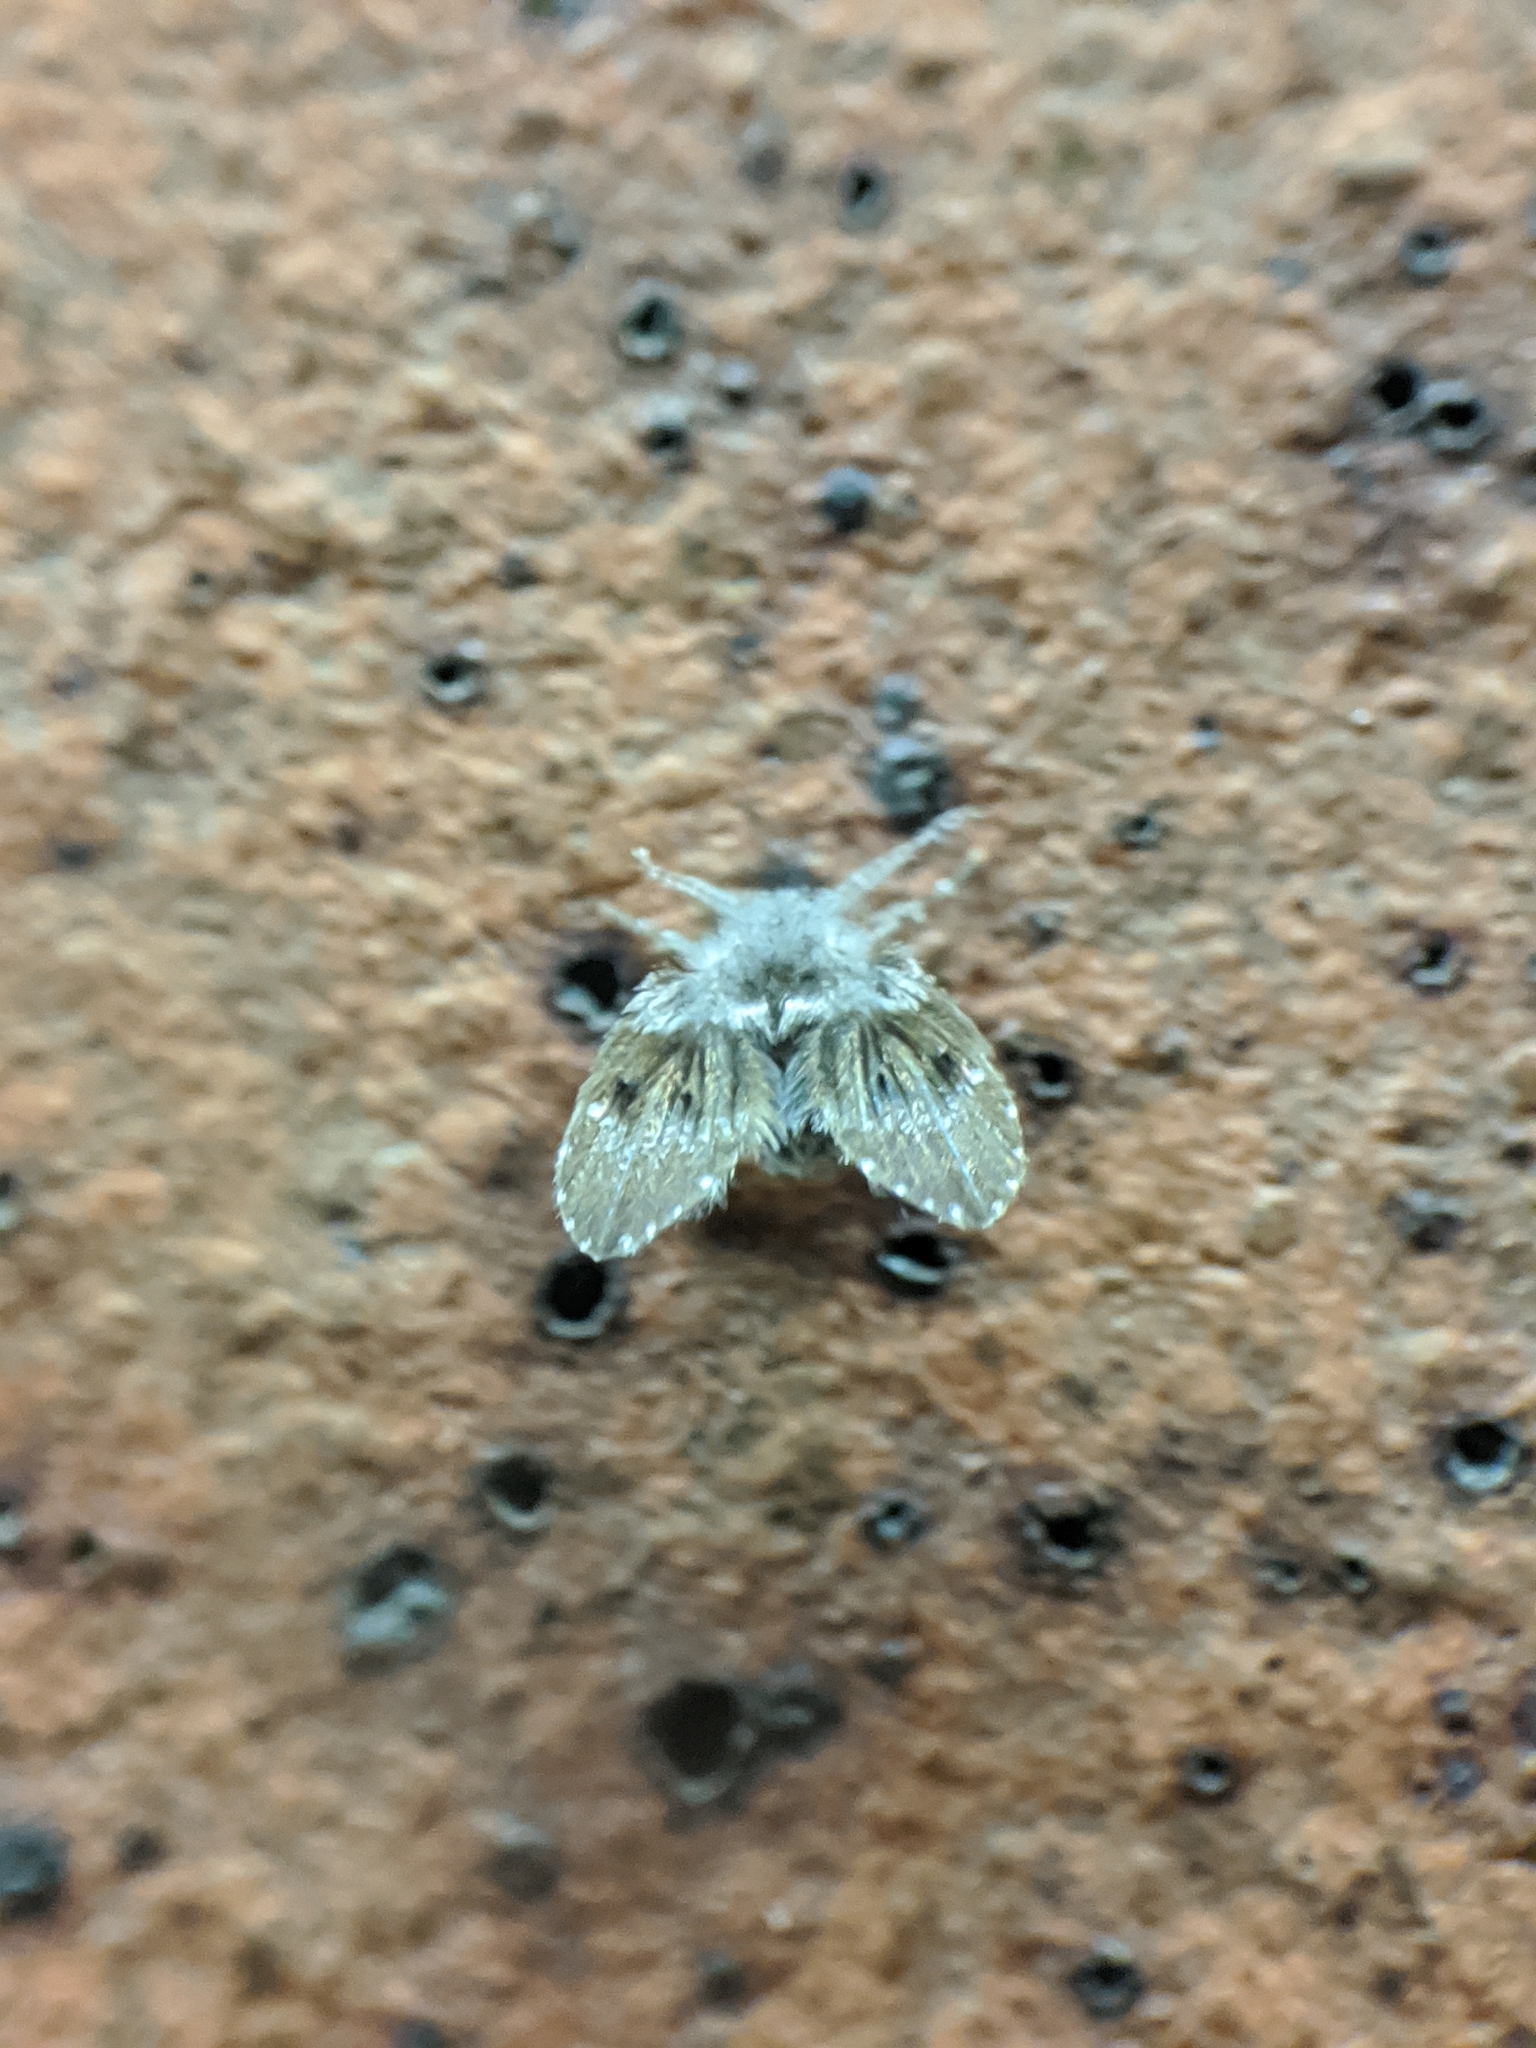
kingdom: Animalia
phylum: Arthropoda
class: Insecta
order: Diptera
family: Psychodidae
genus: Clogmia
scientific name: Clogmia albipunctatus
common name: White-spotted moth fly
